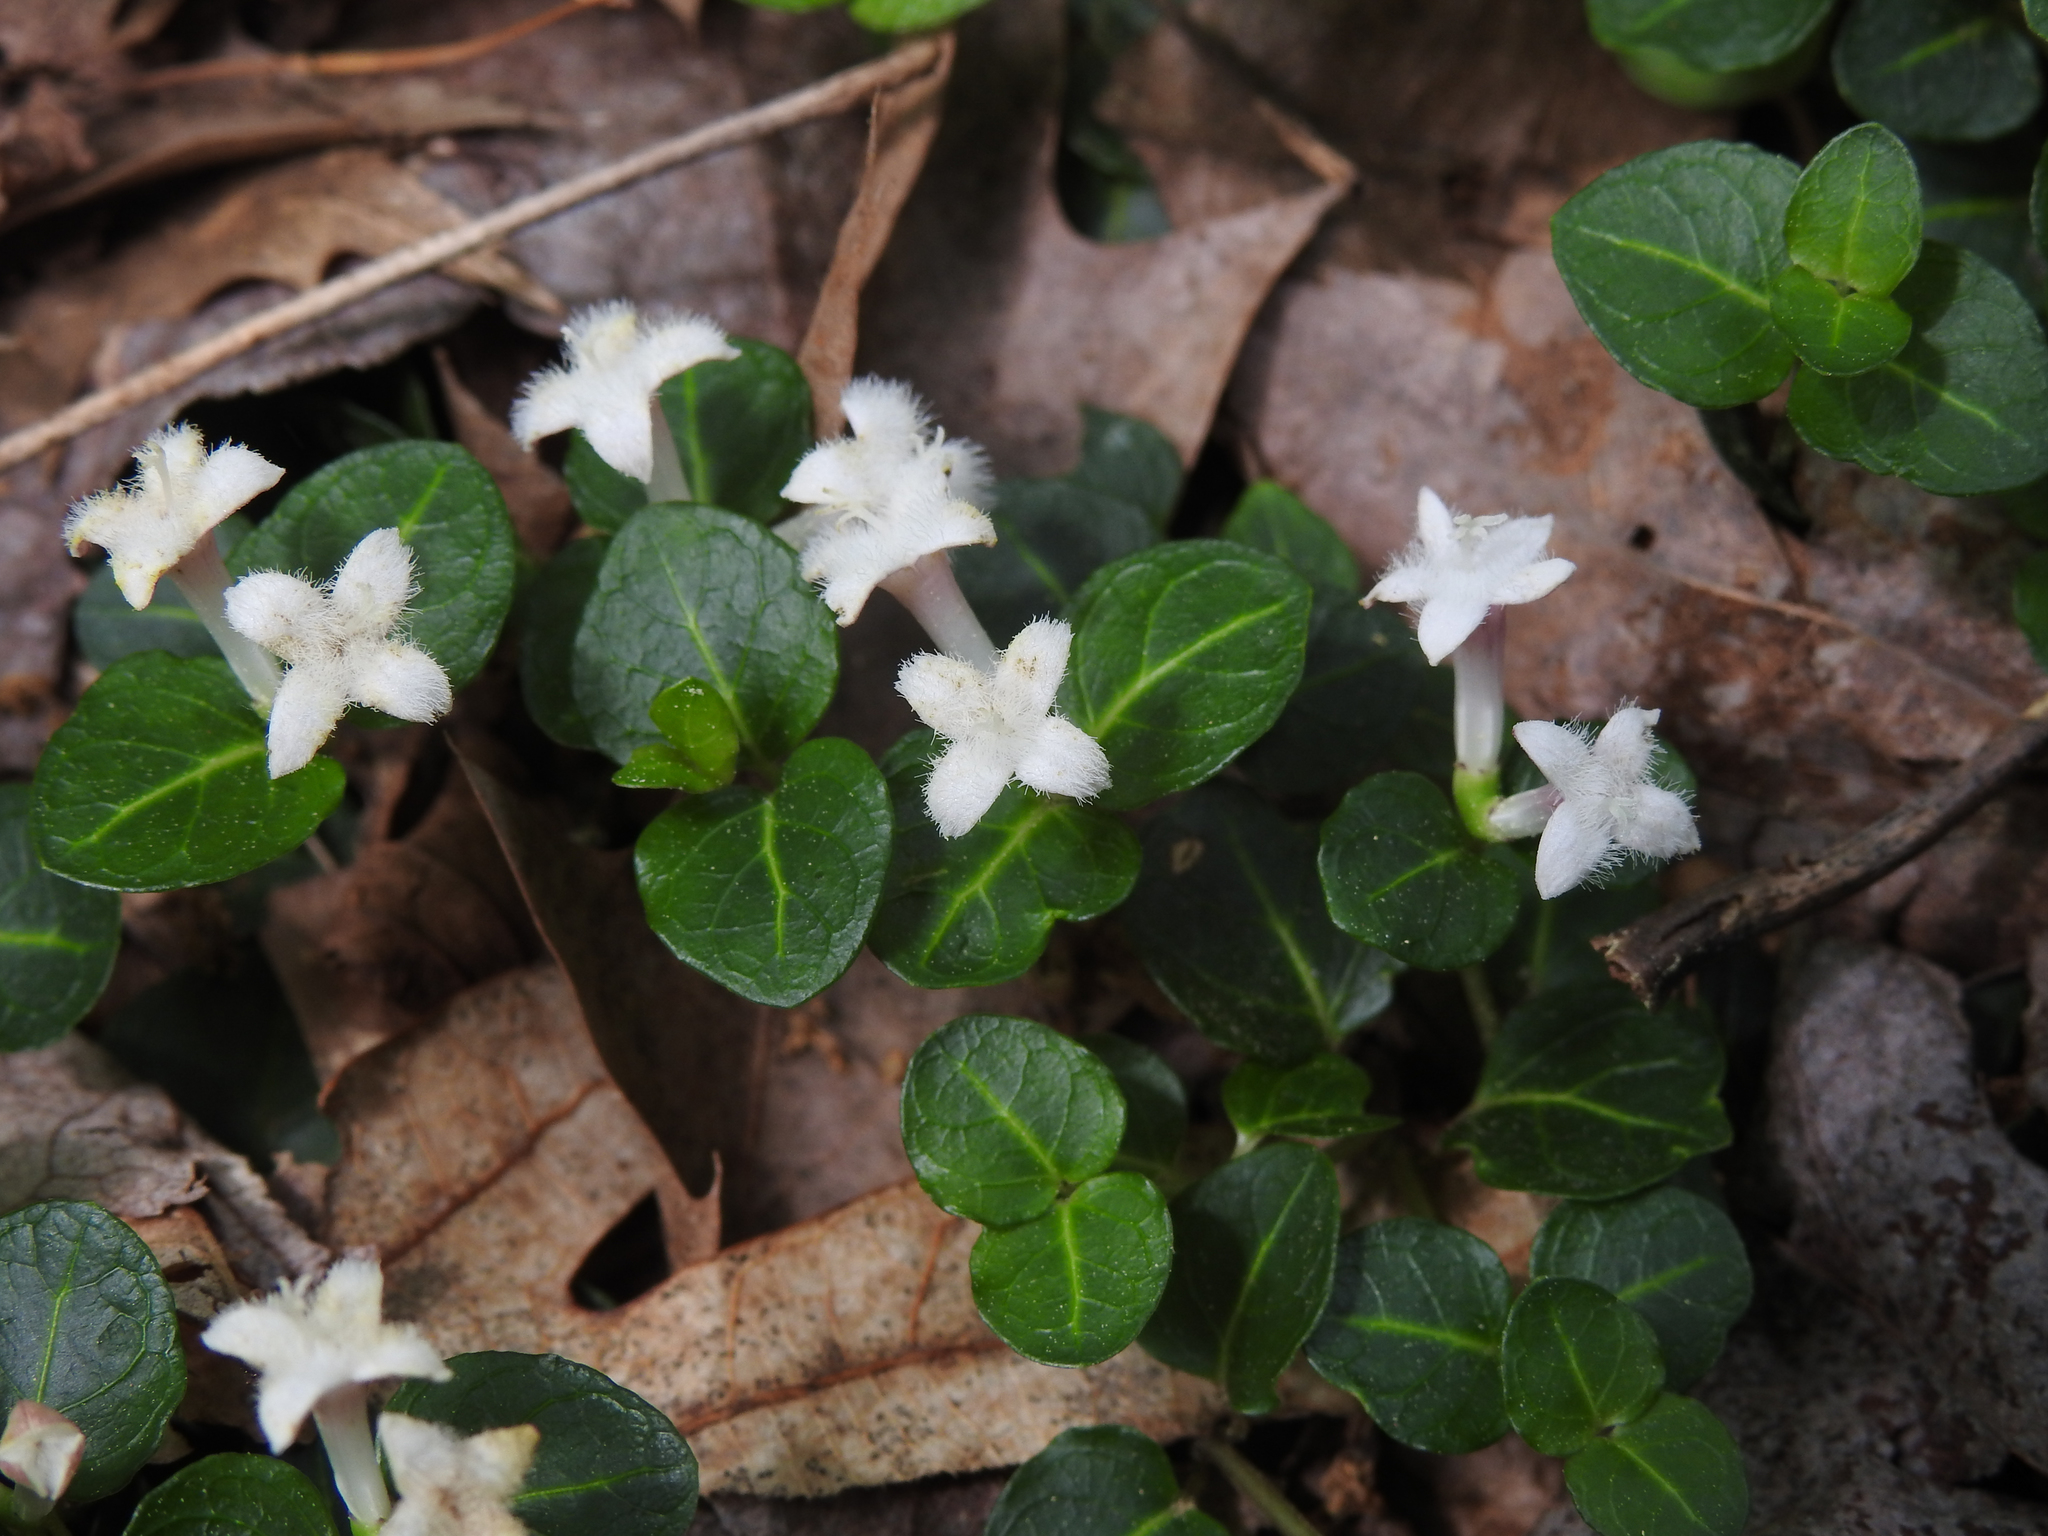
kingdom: Plantae
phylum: Tracheophyta
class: Magnoliopsida
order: Gentianales
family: Rubiaceae
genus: Mitchella
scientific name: Mitchella repens
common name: Partridge-berry
